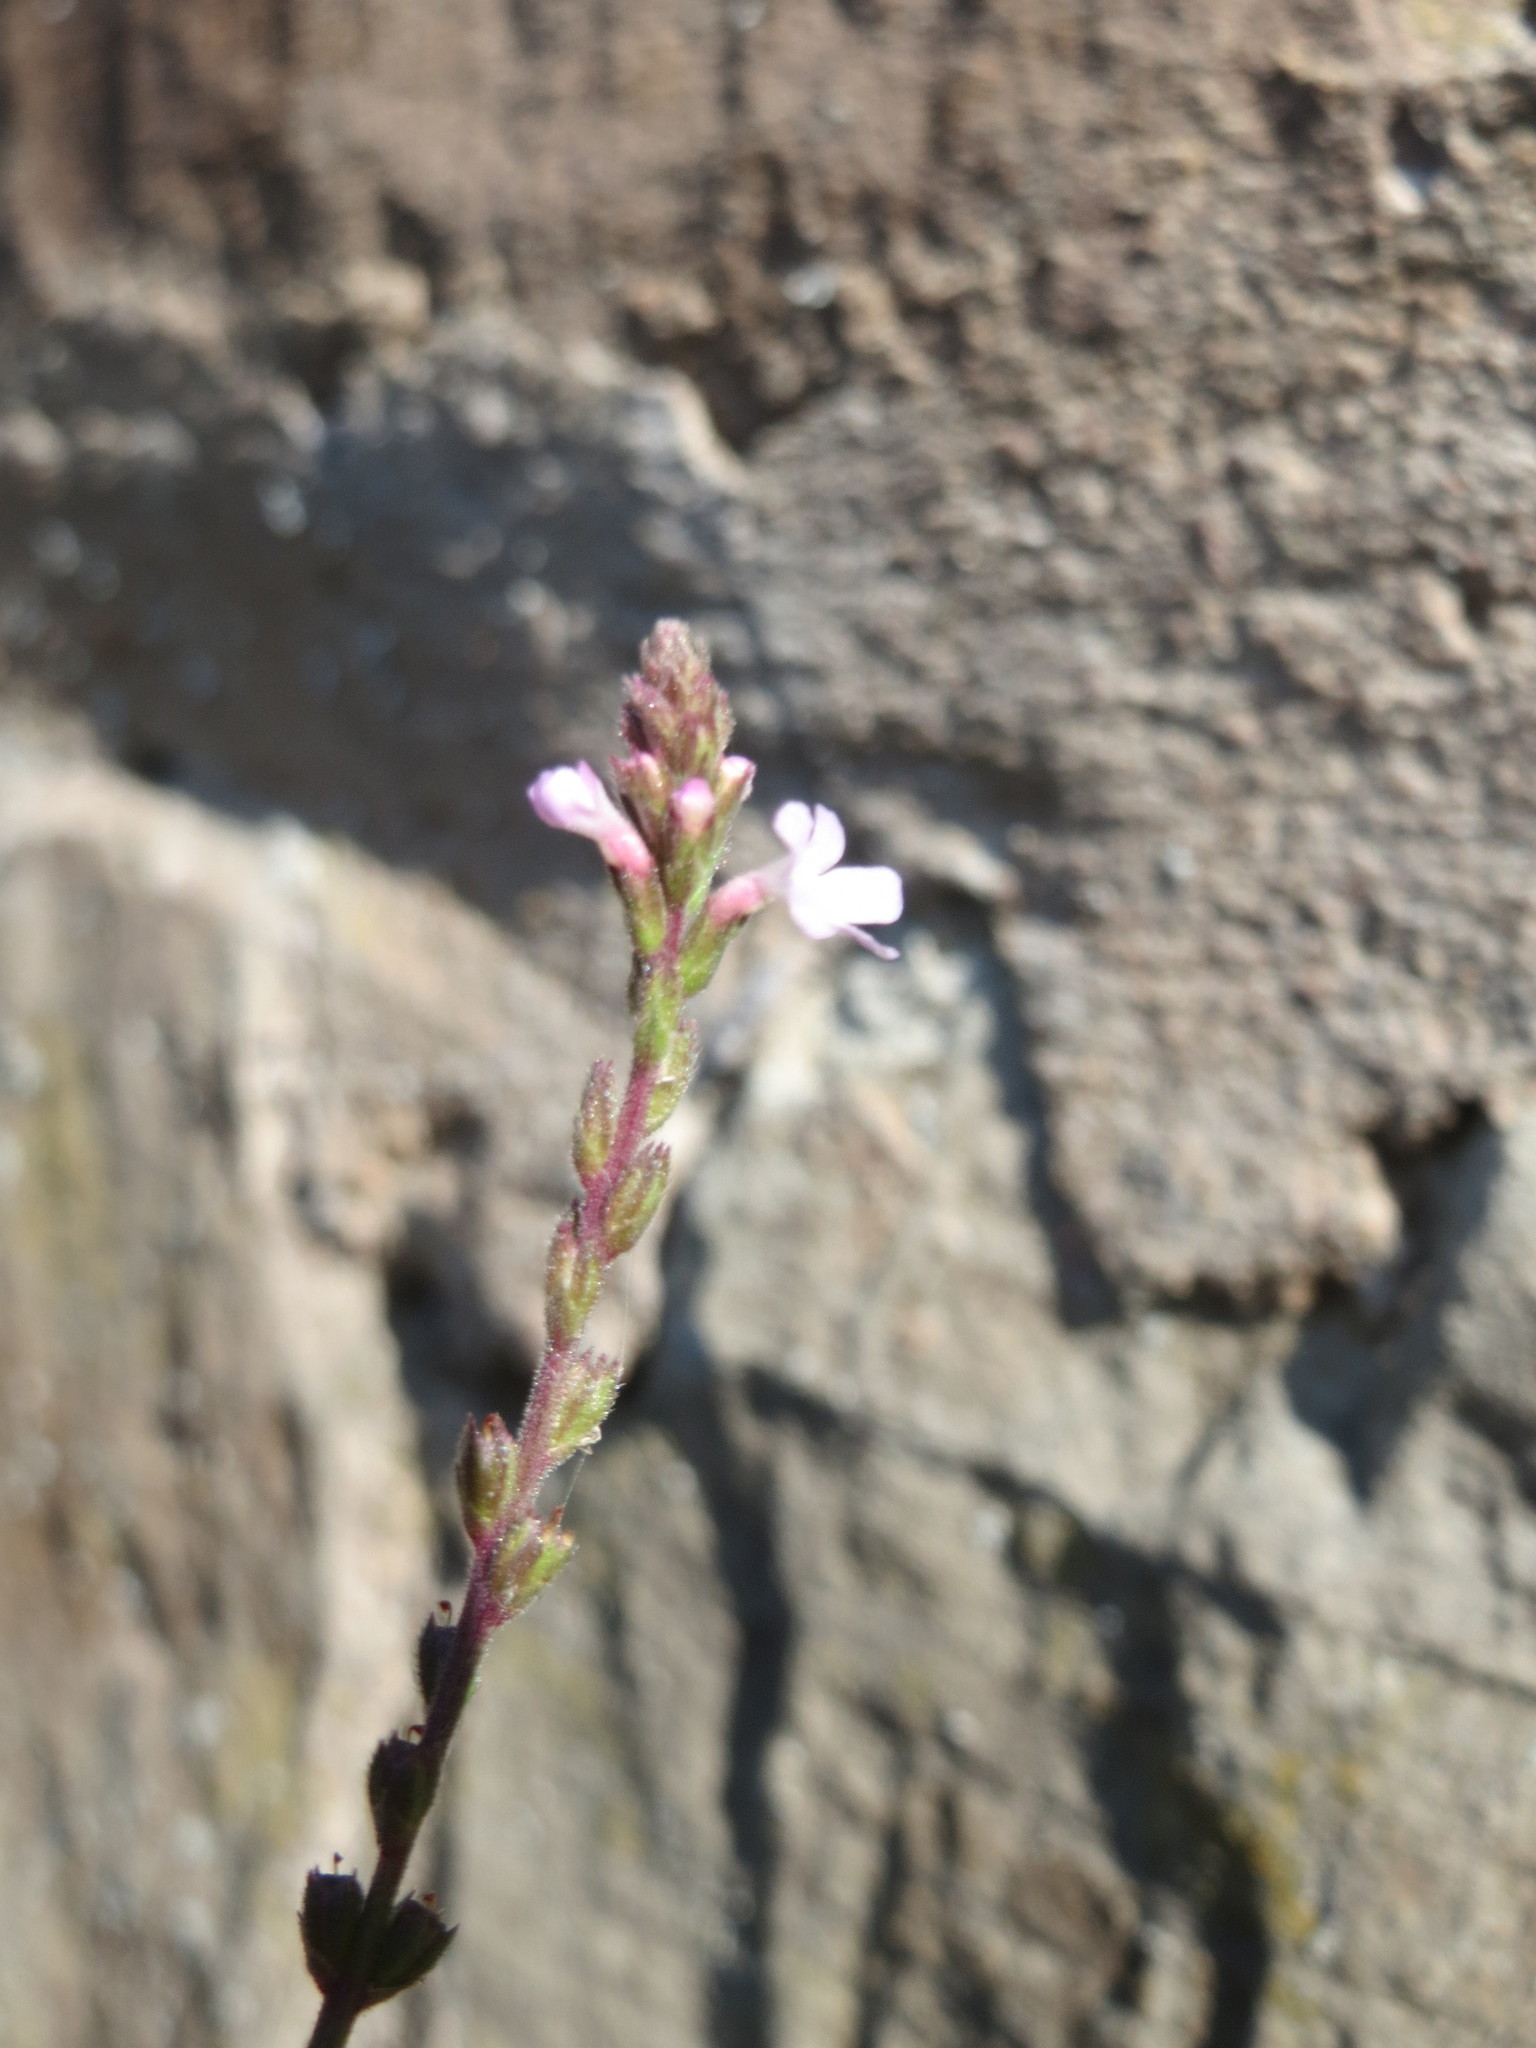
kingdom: Plantae
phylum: Tracheophyta
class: Magnoliopsida
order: Lamiales
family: Verbenaceae
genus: Verbena
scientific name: Verbena officinalis
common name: Vervain
